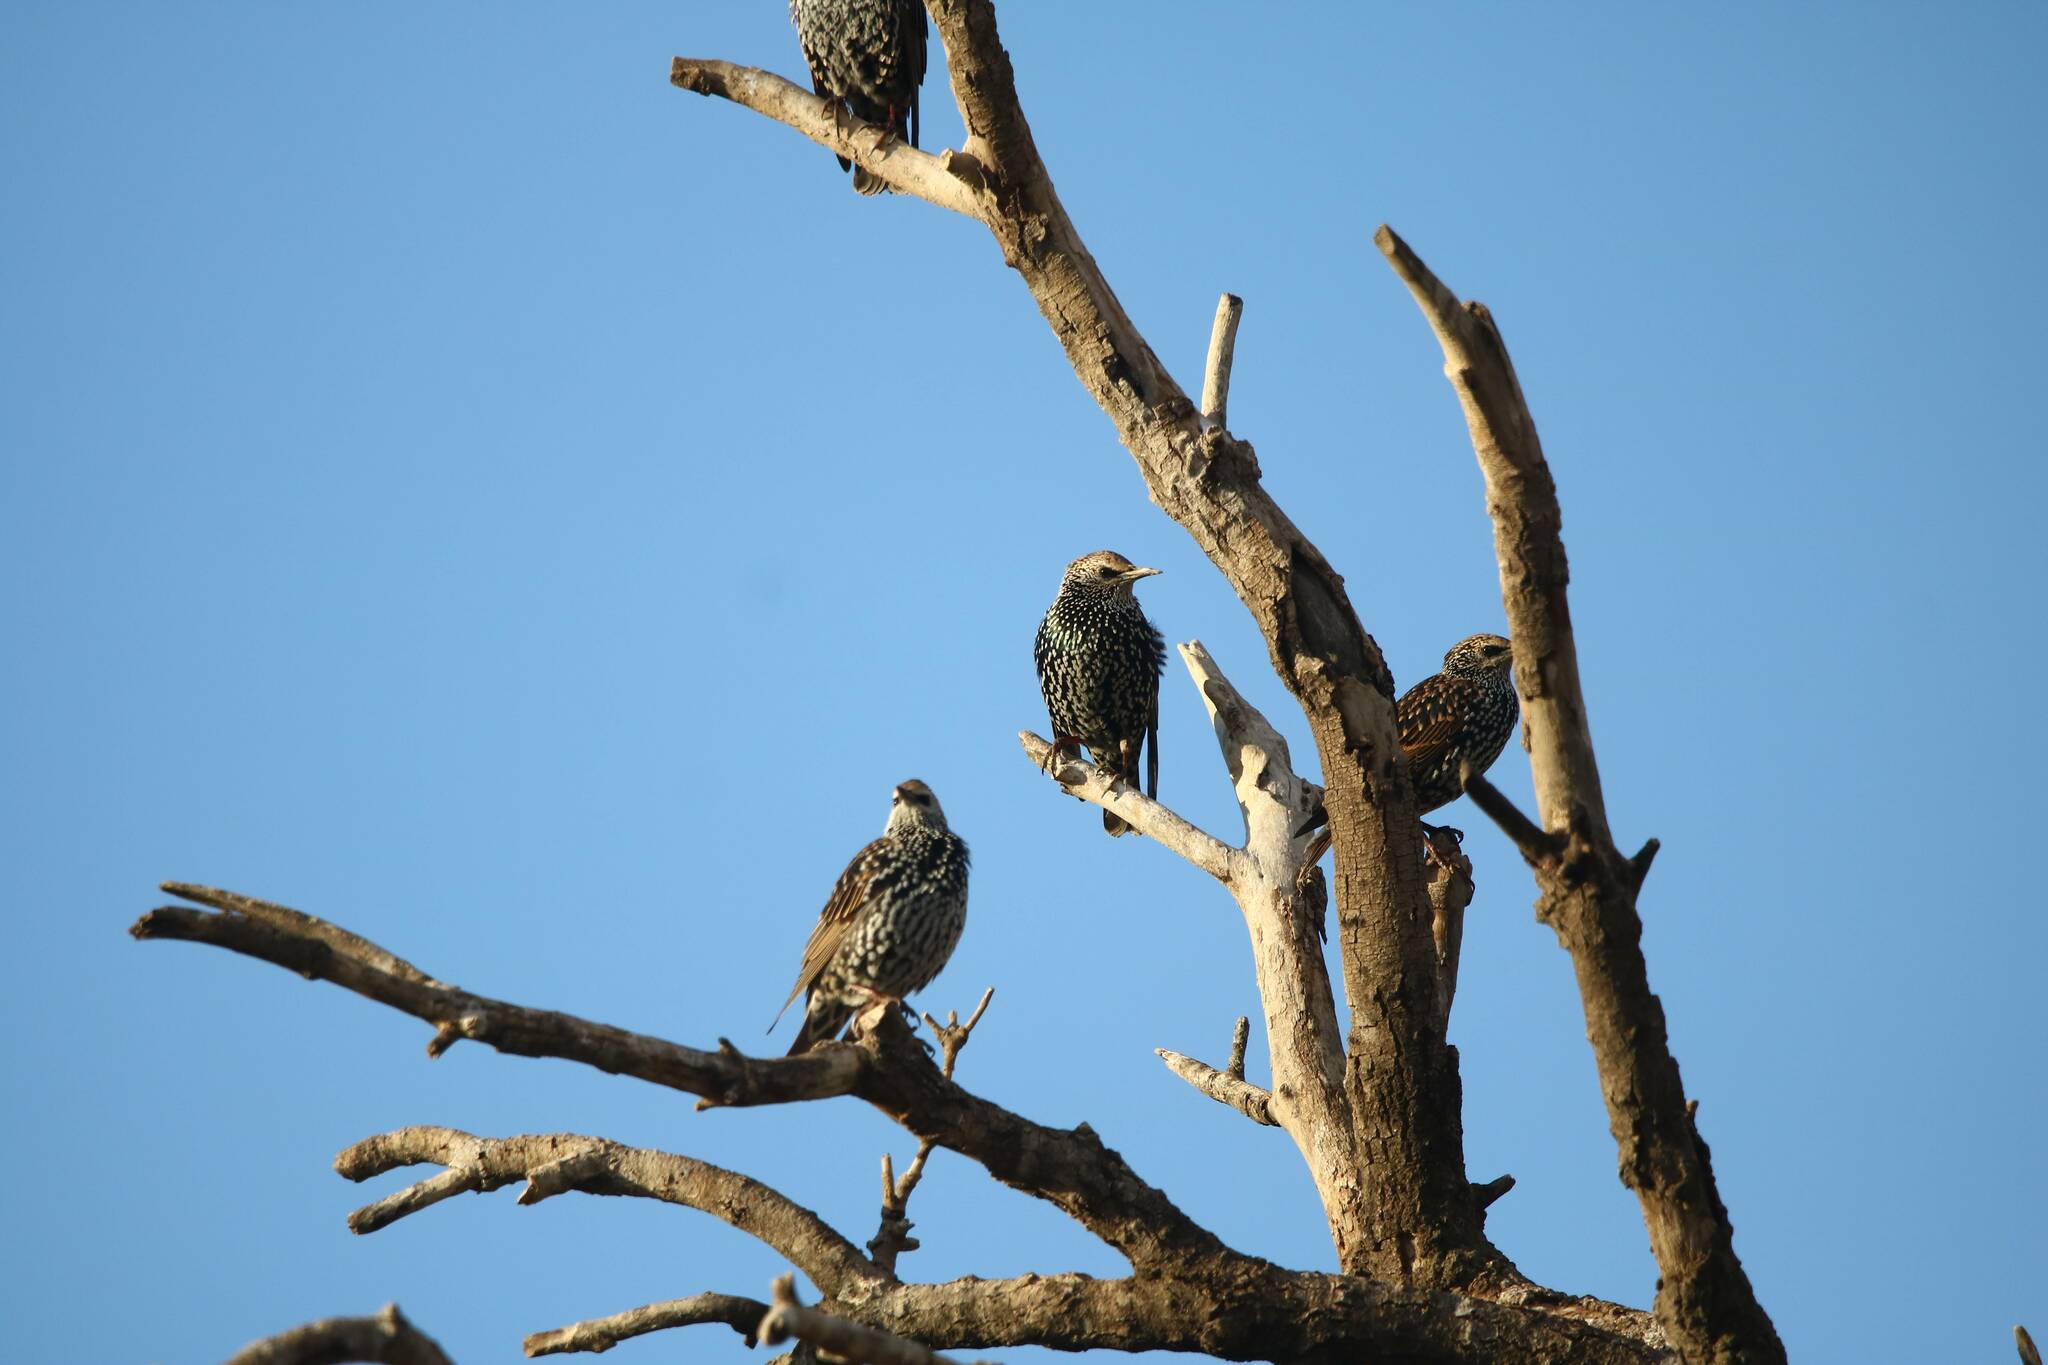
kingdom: Animalia
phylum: Chordata
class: Aves
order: Passeriformes
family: Sturnidae
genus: Sturnus
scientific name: Sturnus vulgaris
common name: Common starling
